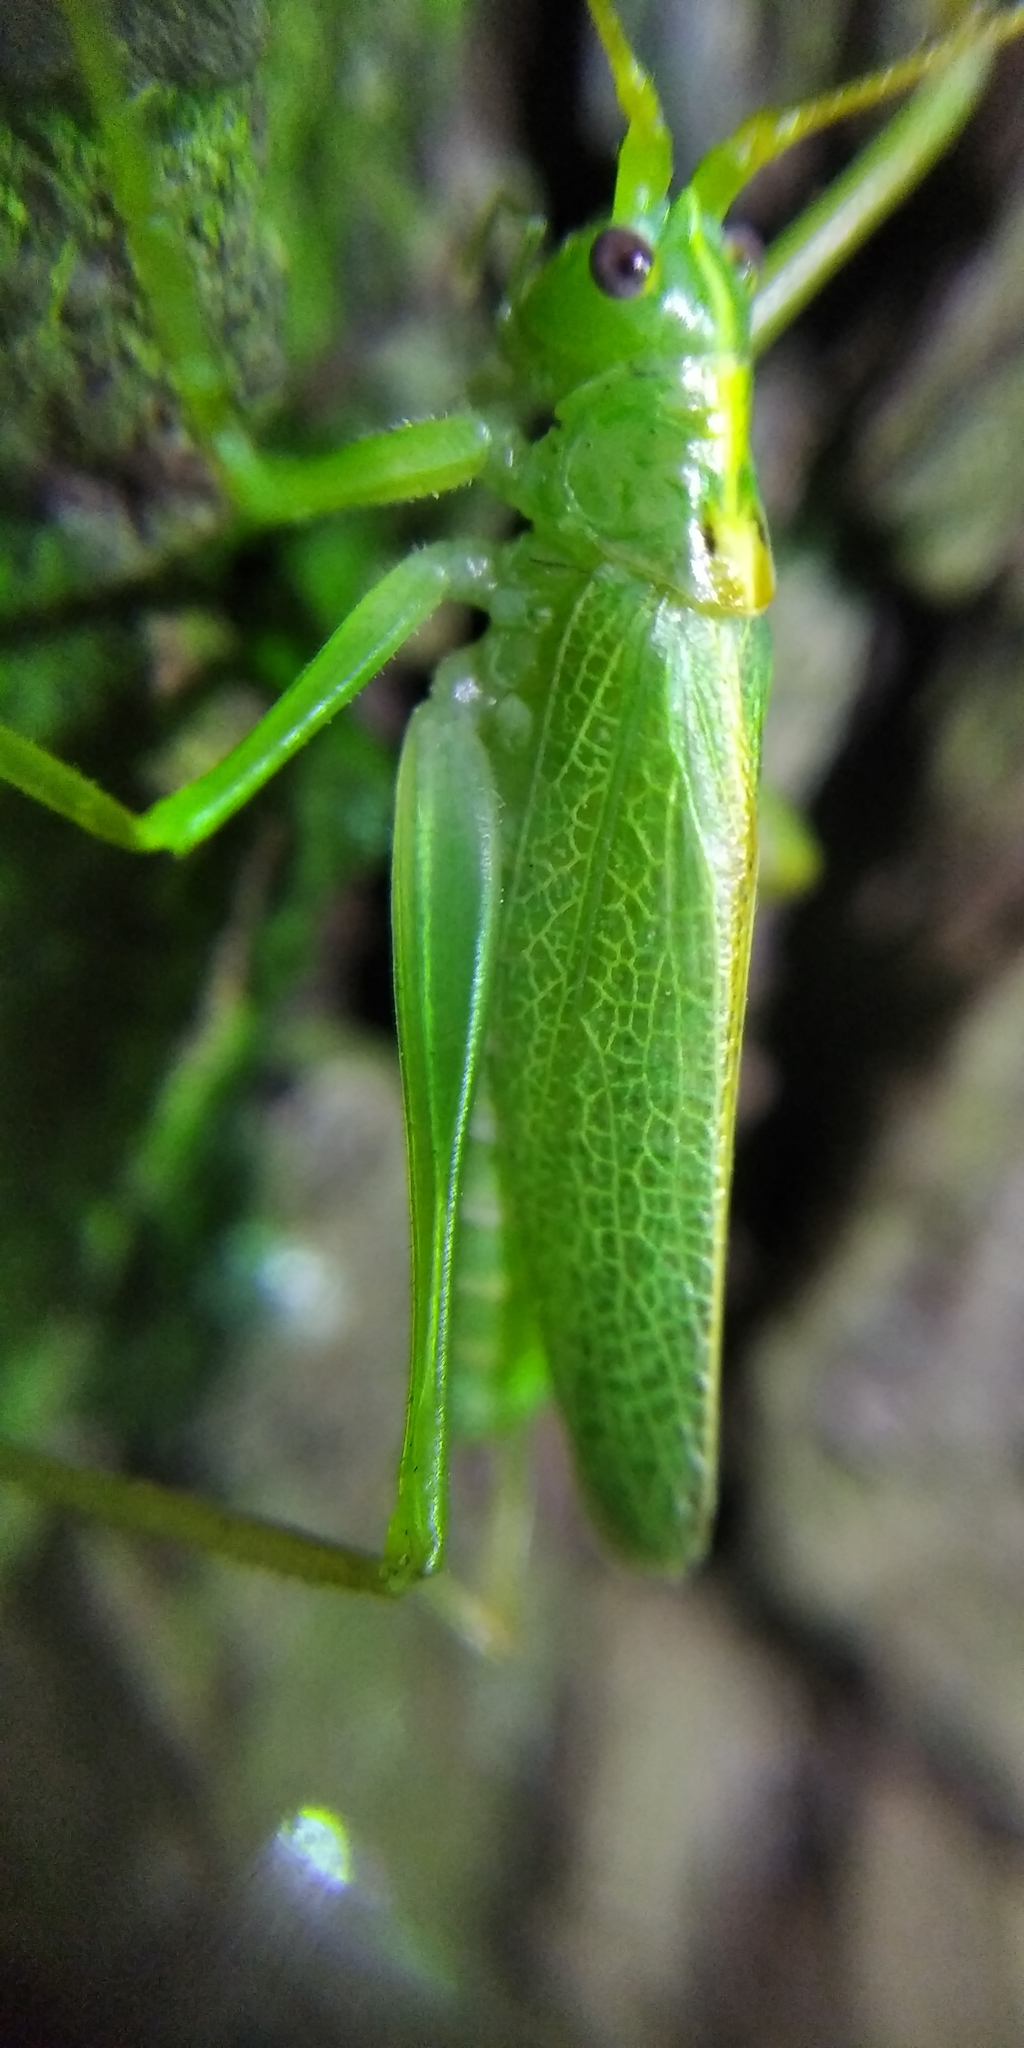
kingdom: Animalia
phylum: Arthropoda
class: Insecta
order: Orthoptera
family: Tettigoniidae
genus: Meconema
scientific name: Meconema thalassinum
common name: Oak bush-cricket
